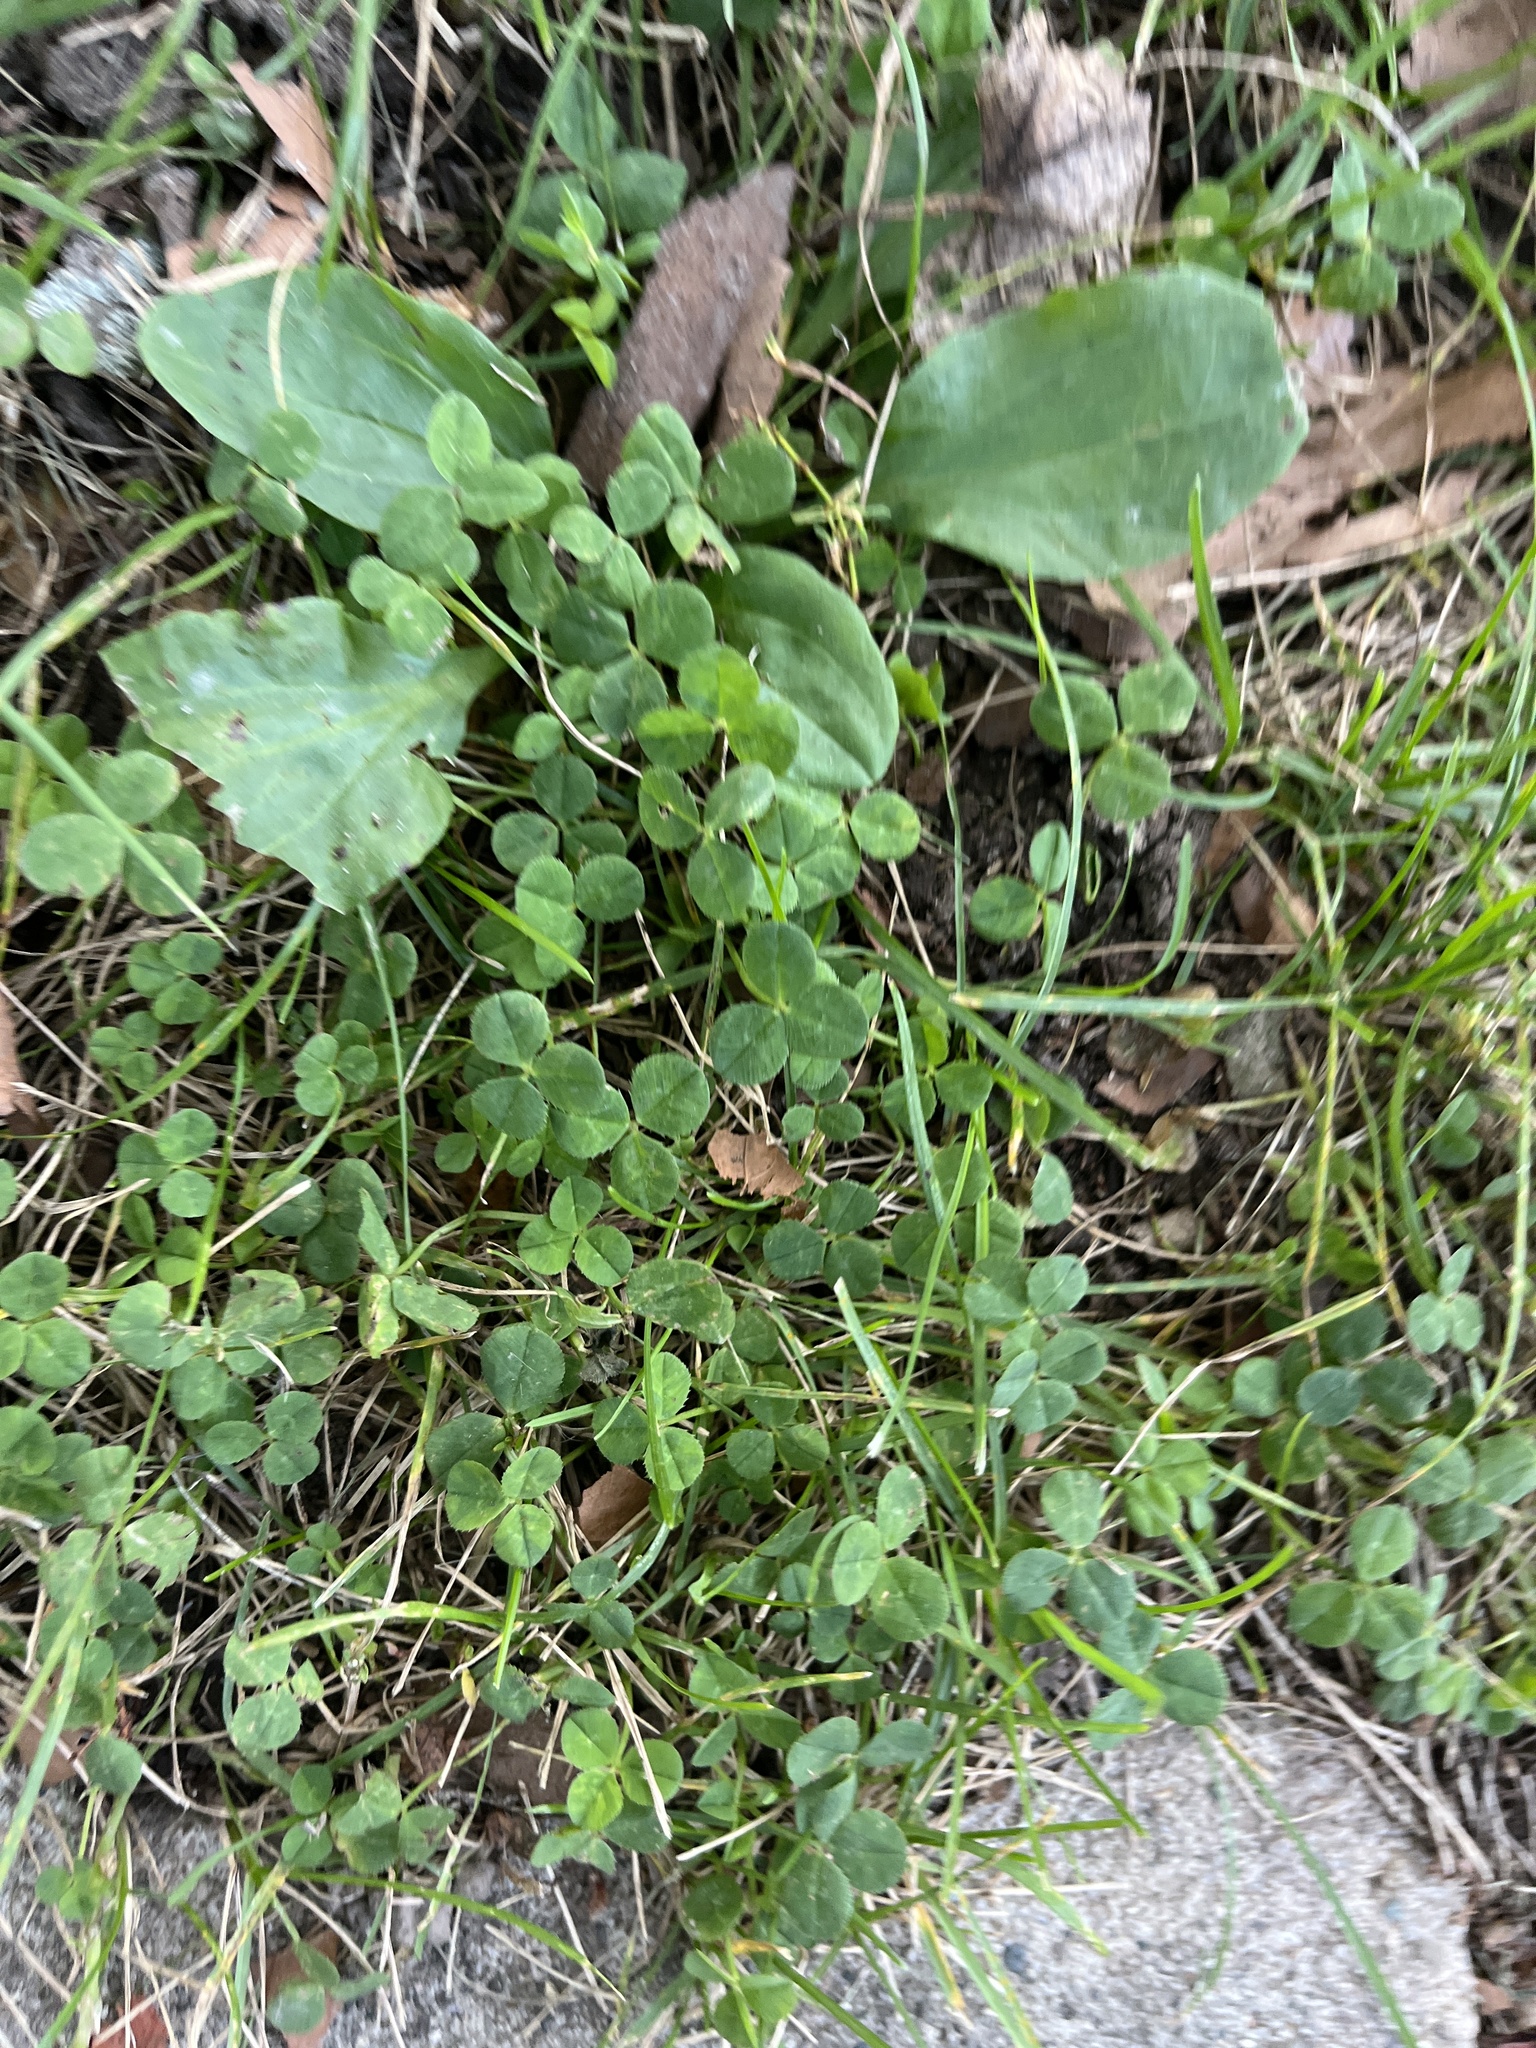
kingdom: Plantae
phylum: Tracheophyta
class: Magnoliopsida
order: Fabales
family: Fabaceae
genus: Trifolium
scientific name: Trifolium repens
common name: White clover
